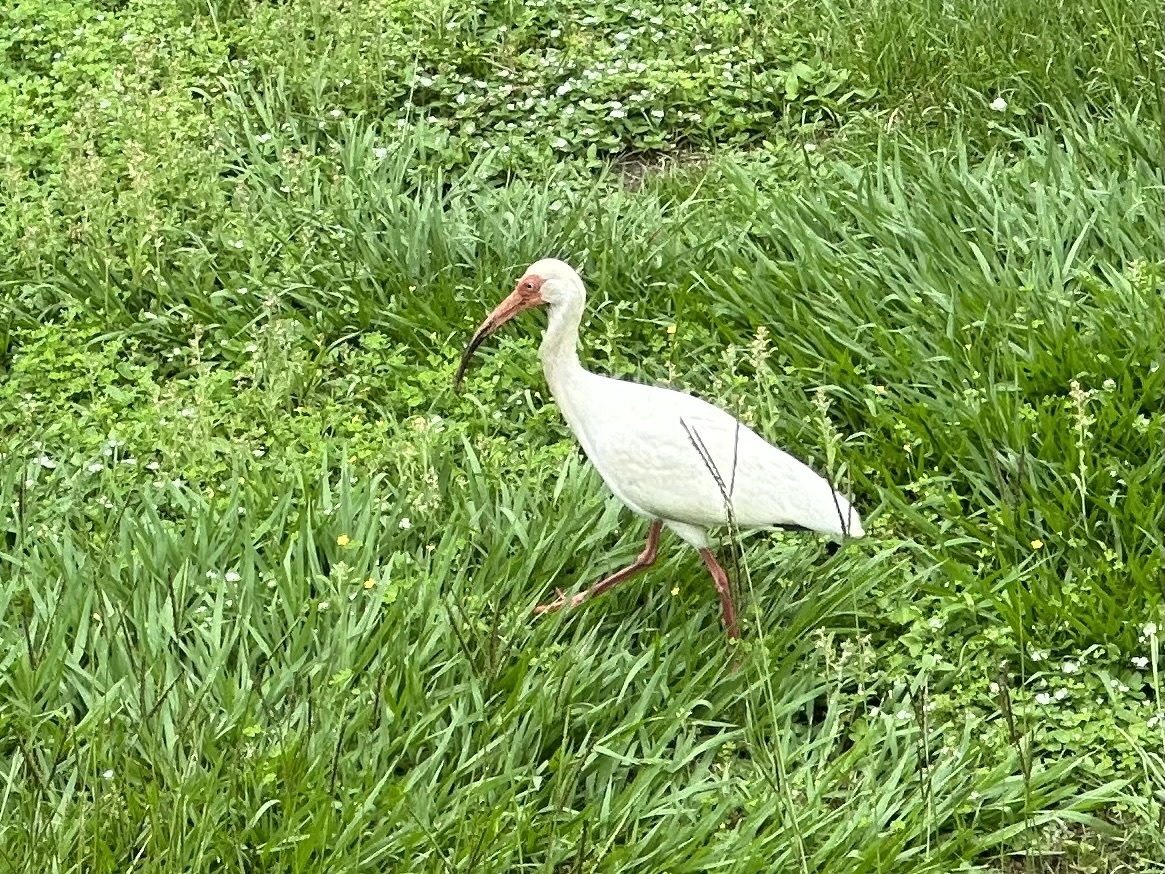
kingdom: Animalia
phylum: Chordata
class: Aves
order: Pelecaniformes
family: Threskiornithidae
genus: Eudocimus
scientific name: Eudocimus albus
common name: White ibis
